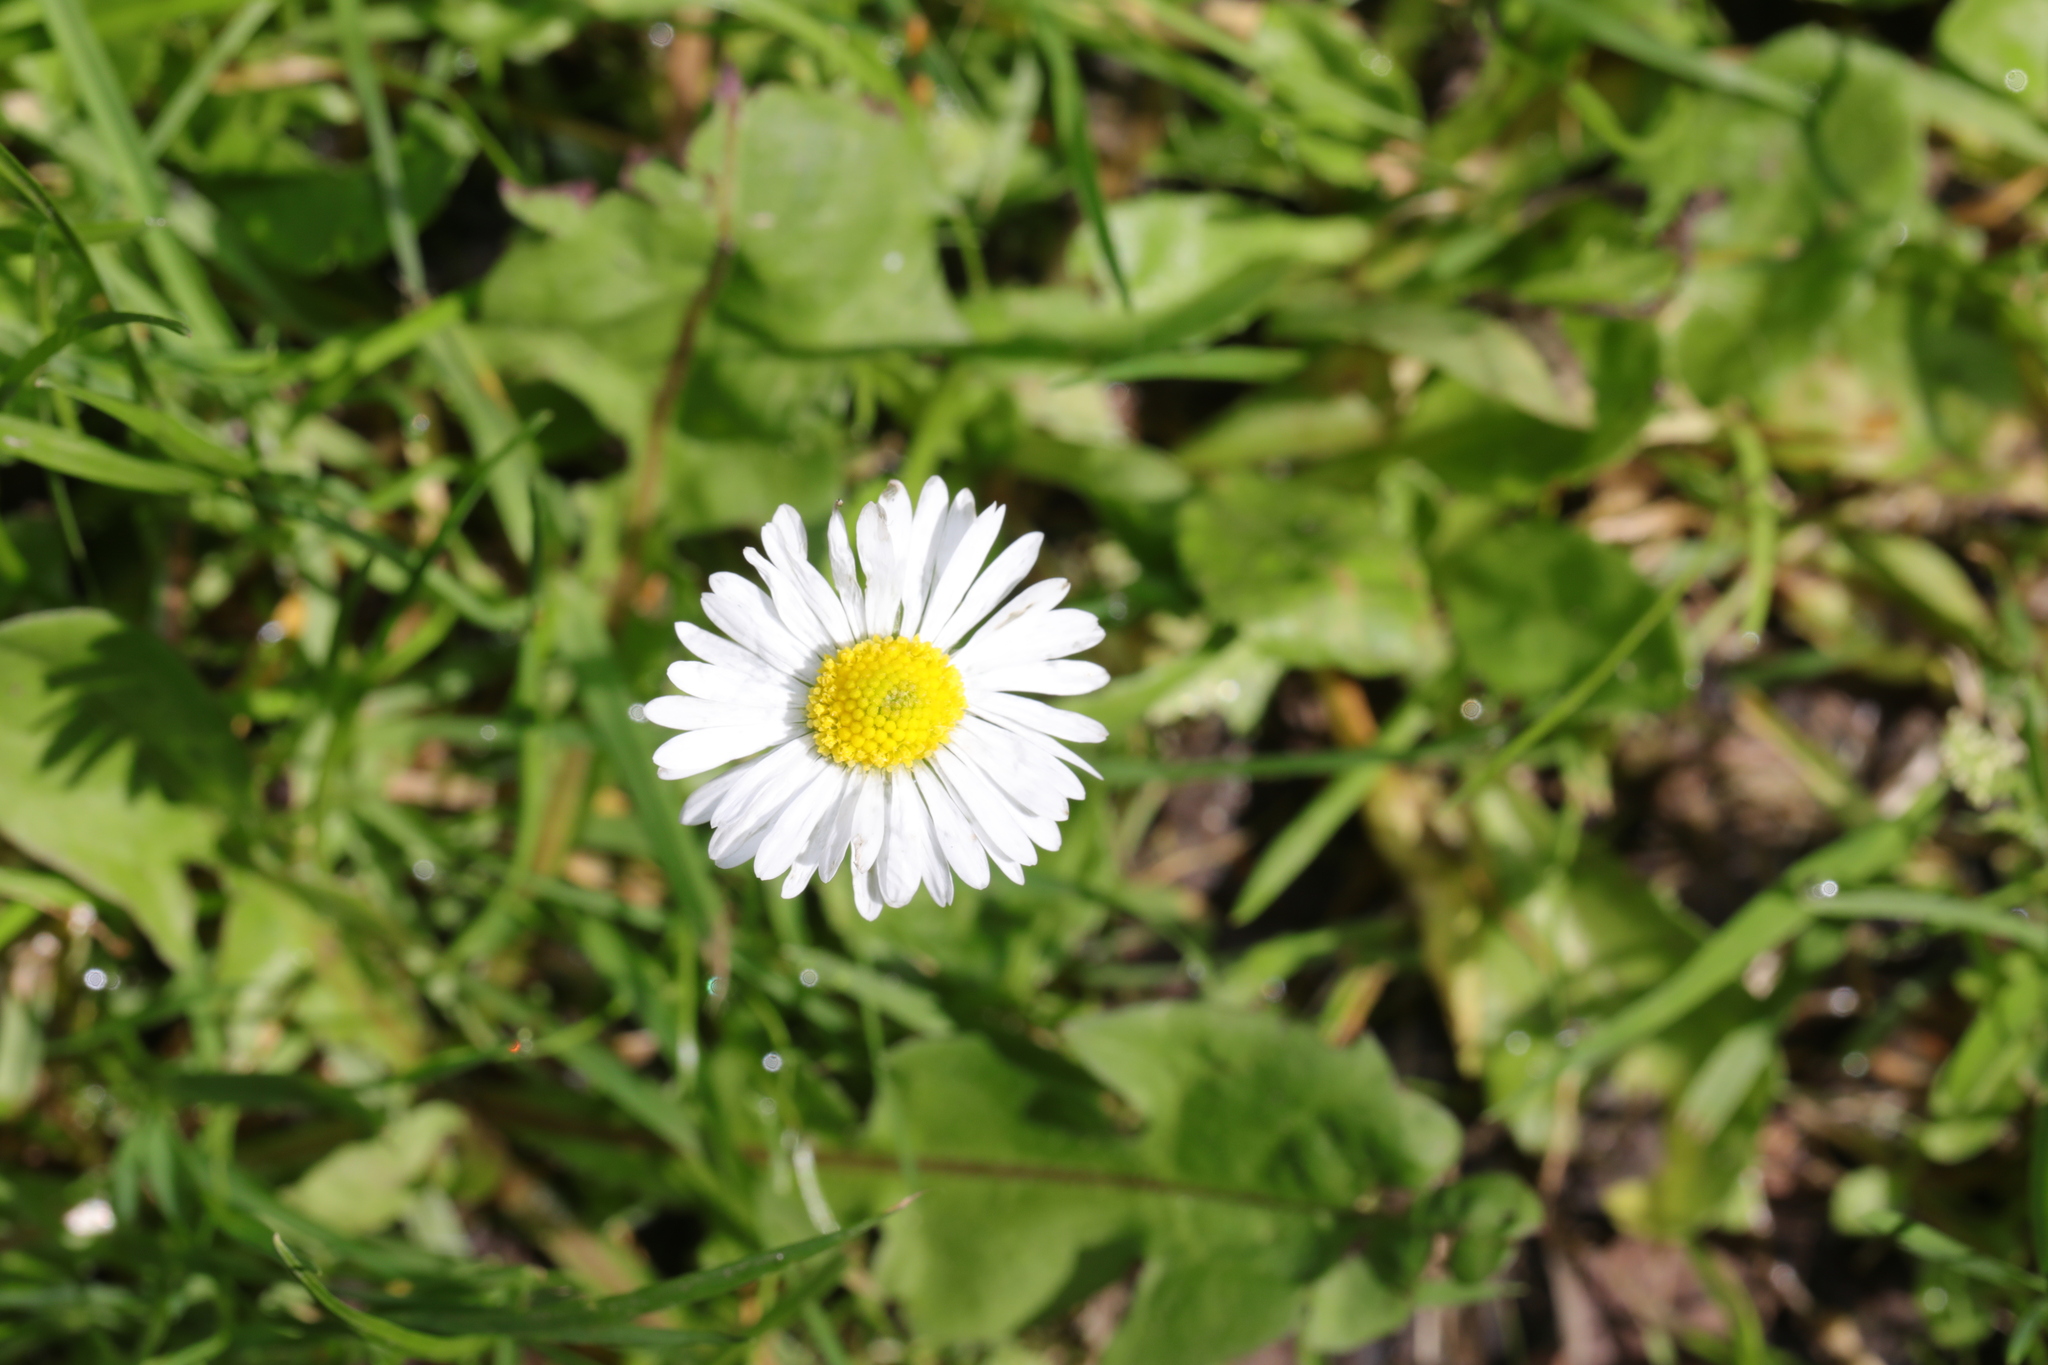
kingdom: Plantae
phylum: Tracheophyta
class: Magnoliopsida
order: Asterales
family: Asteraceae
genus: Bellis
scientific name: Bellis perennis
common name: Lawndaisy
